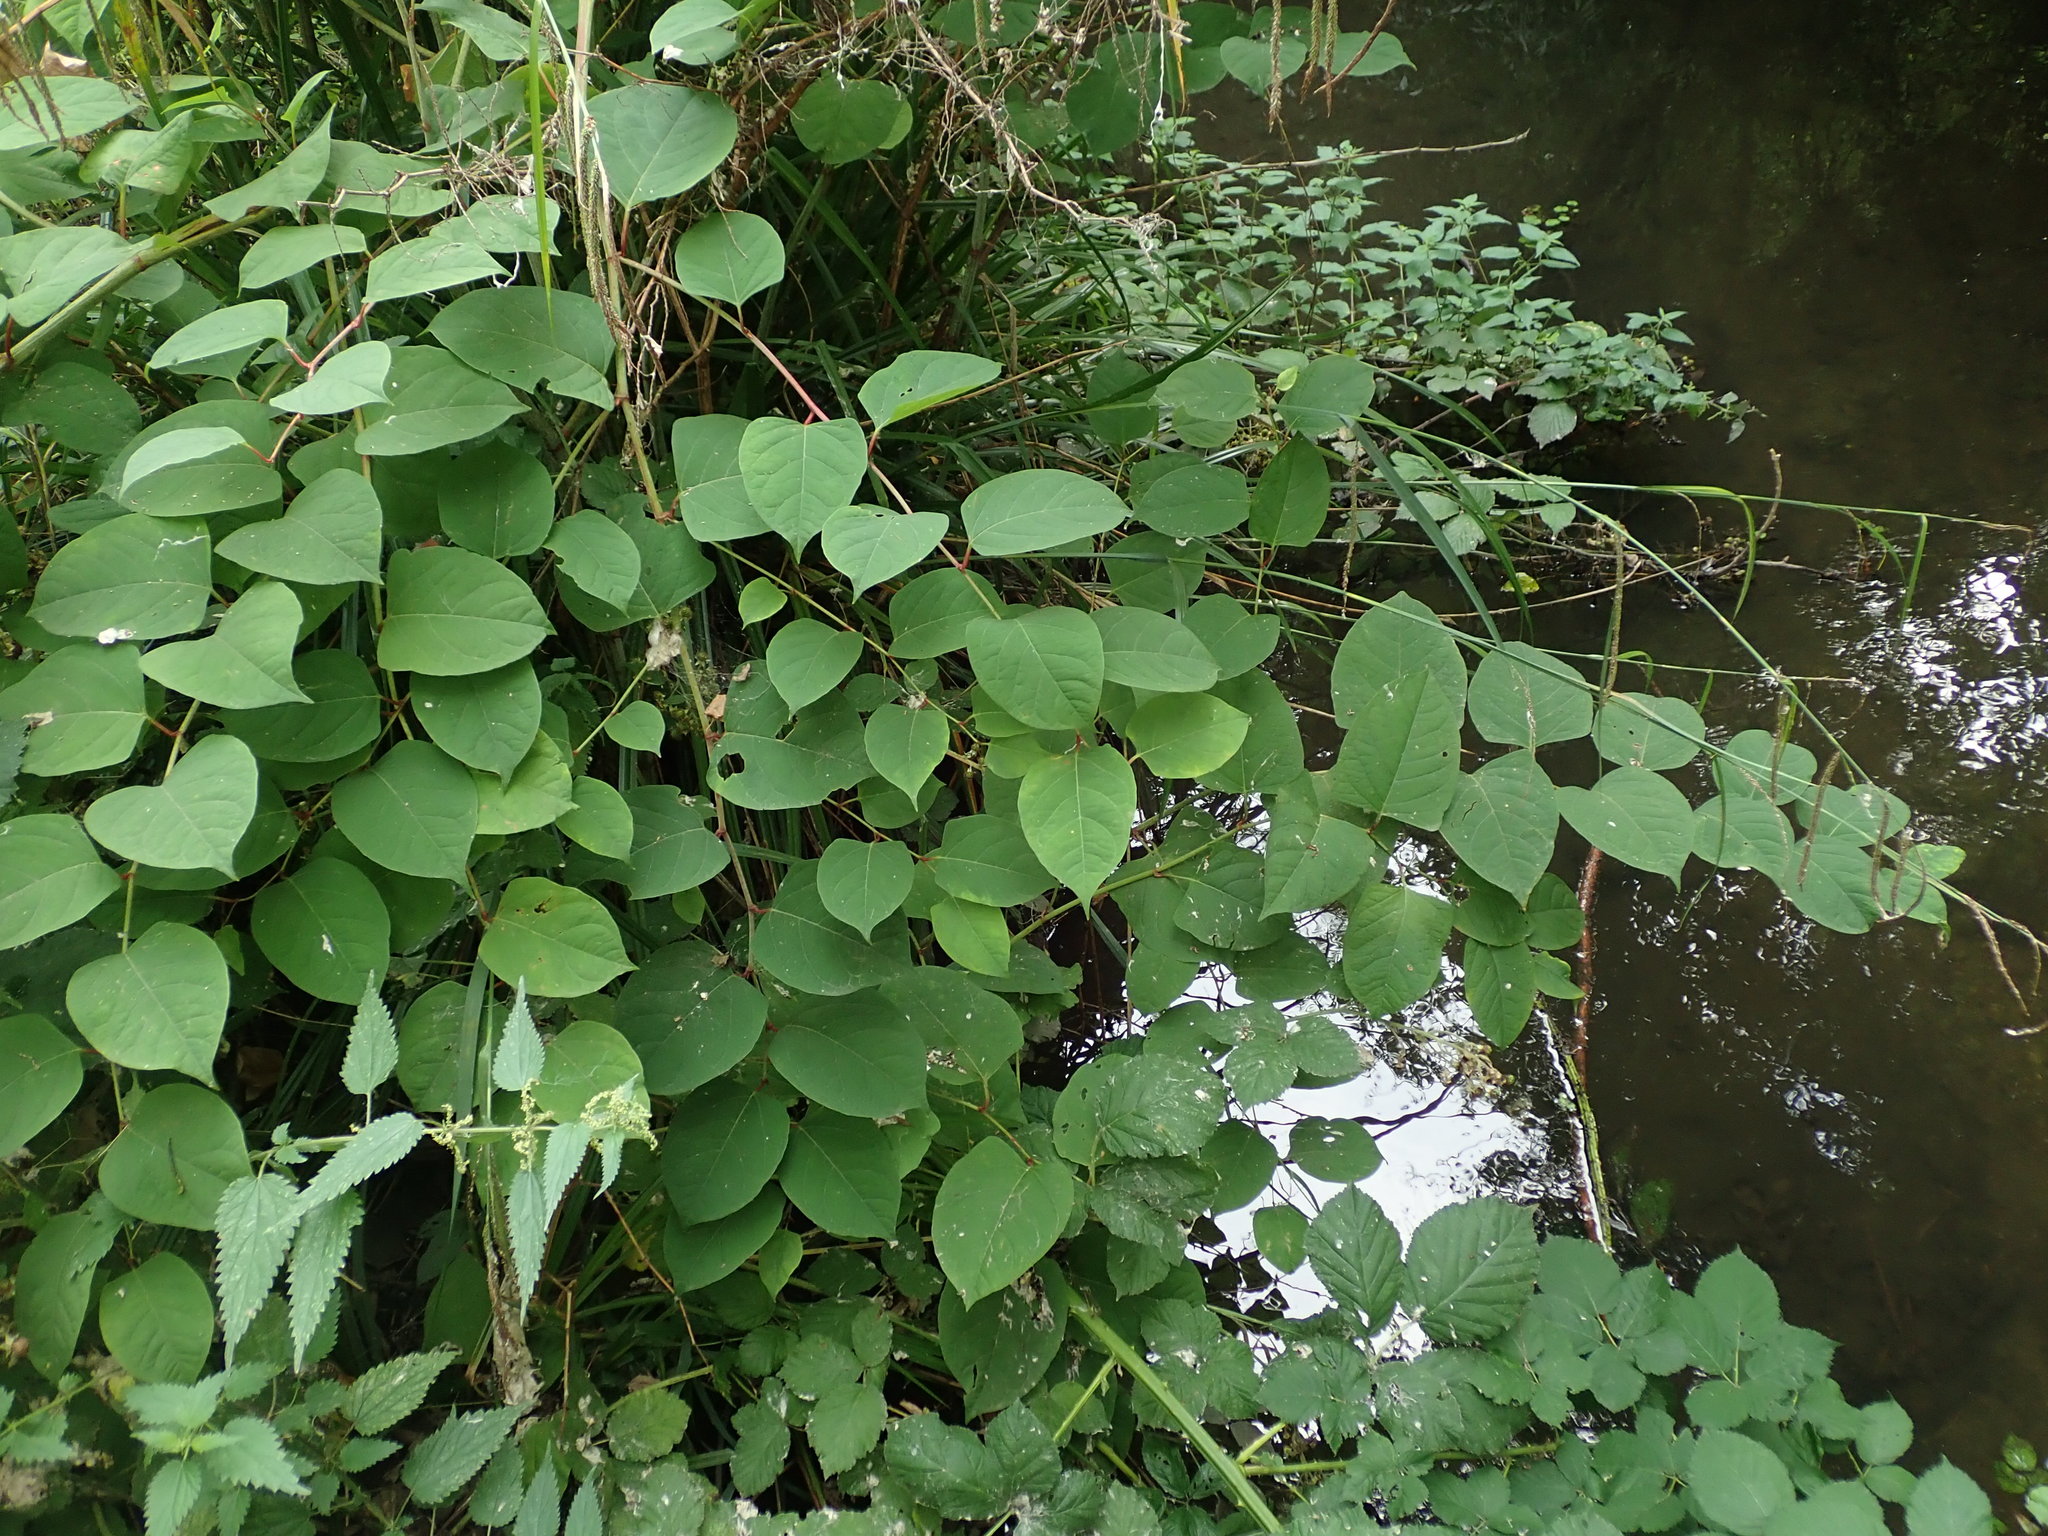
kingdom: Plantae
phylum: Tracheophyta
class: Magnoliopsida
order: Caryophyllales
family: Polygonaceae
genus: Reynoutria
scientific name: Reynoutria japonica
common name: Japanese knotweed
